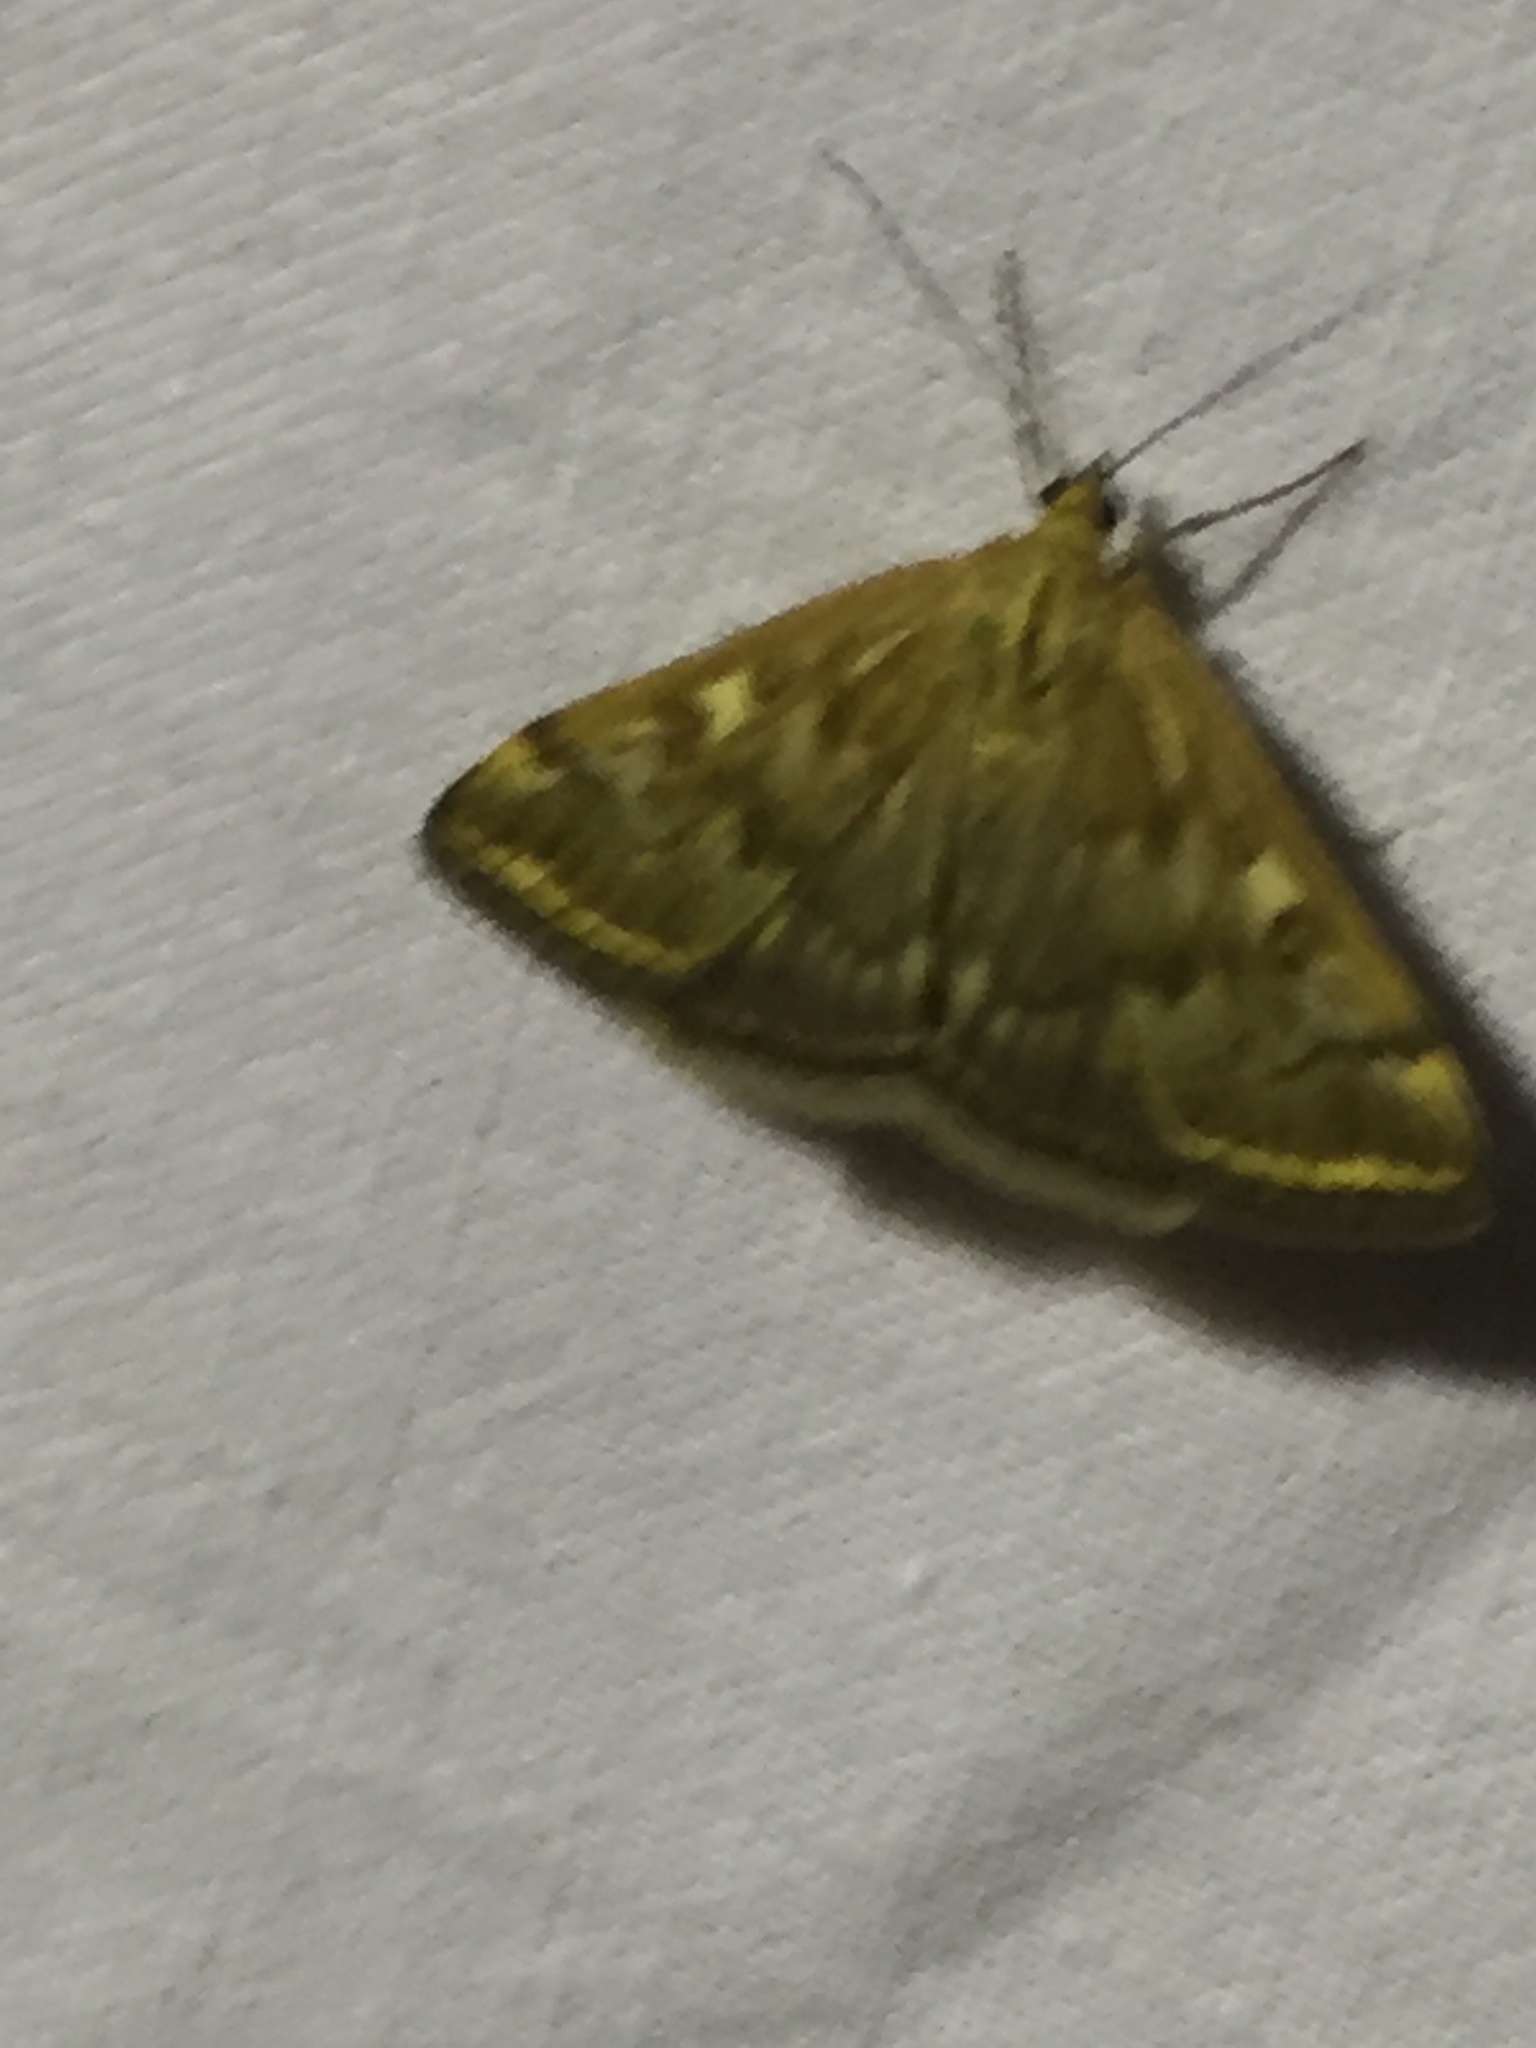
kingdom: Animalia
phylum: Arthropoda
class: Insecta
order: Lepidoptera
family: Crambidae
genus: Loxostege
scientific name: Loxostege sticticalis
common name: Crambid moth
